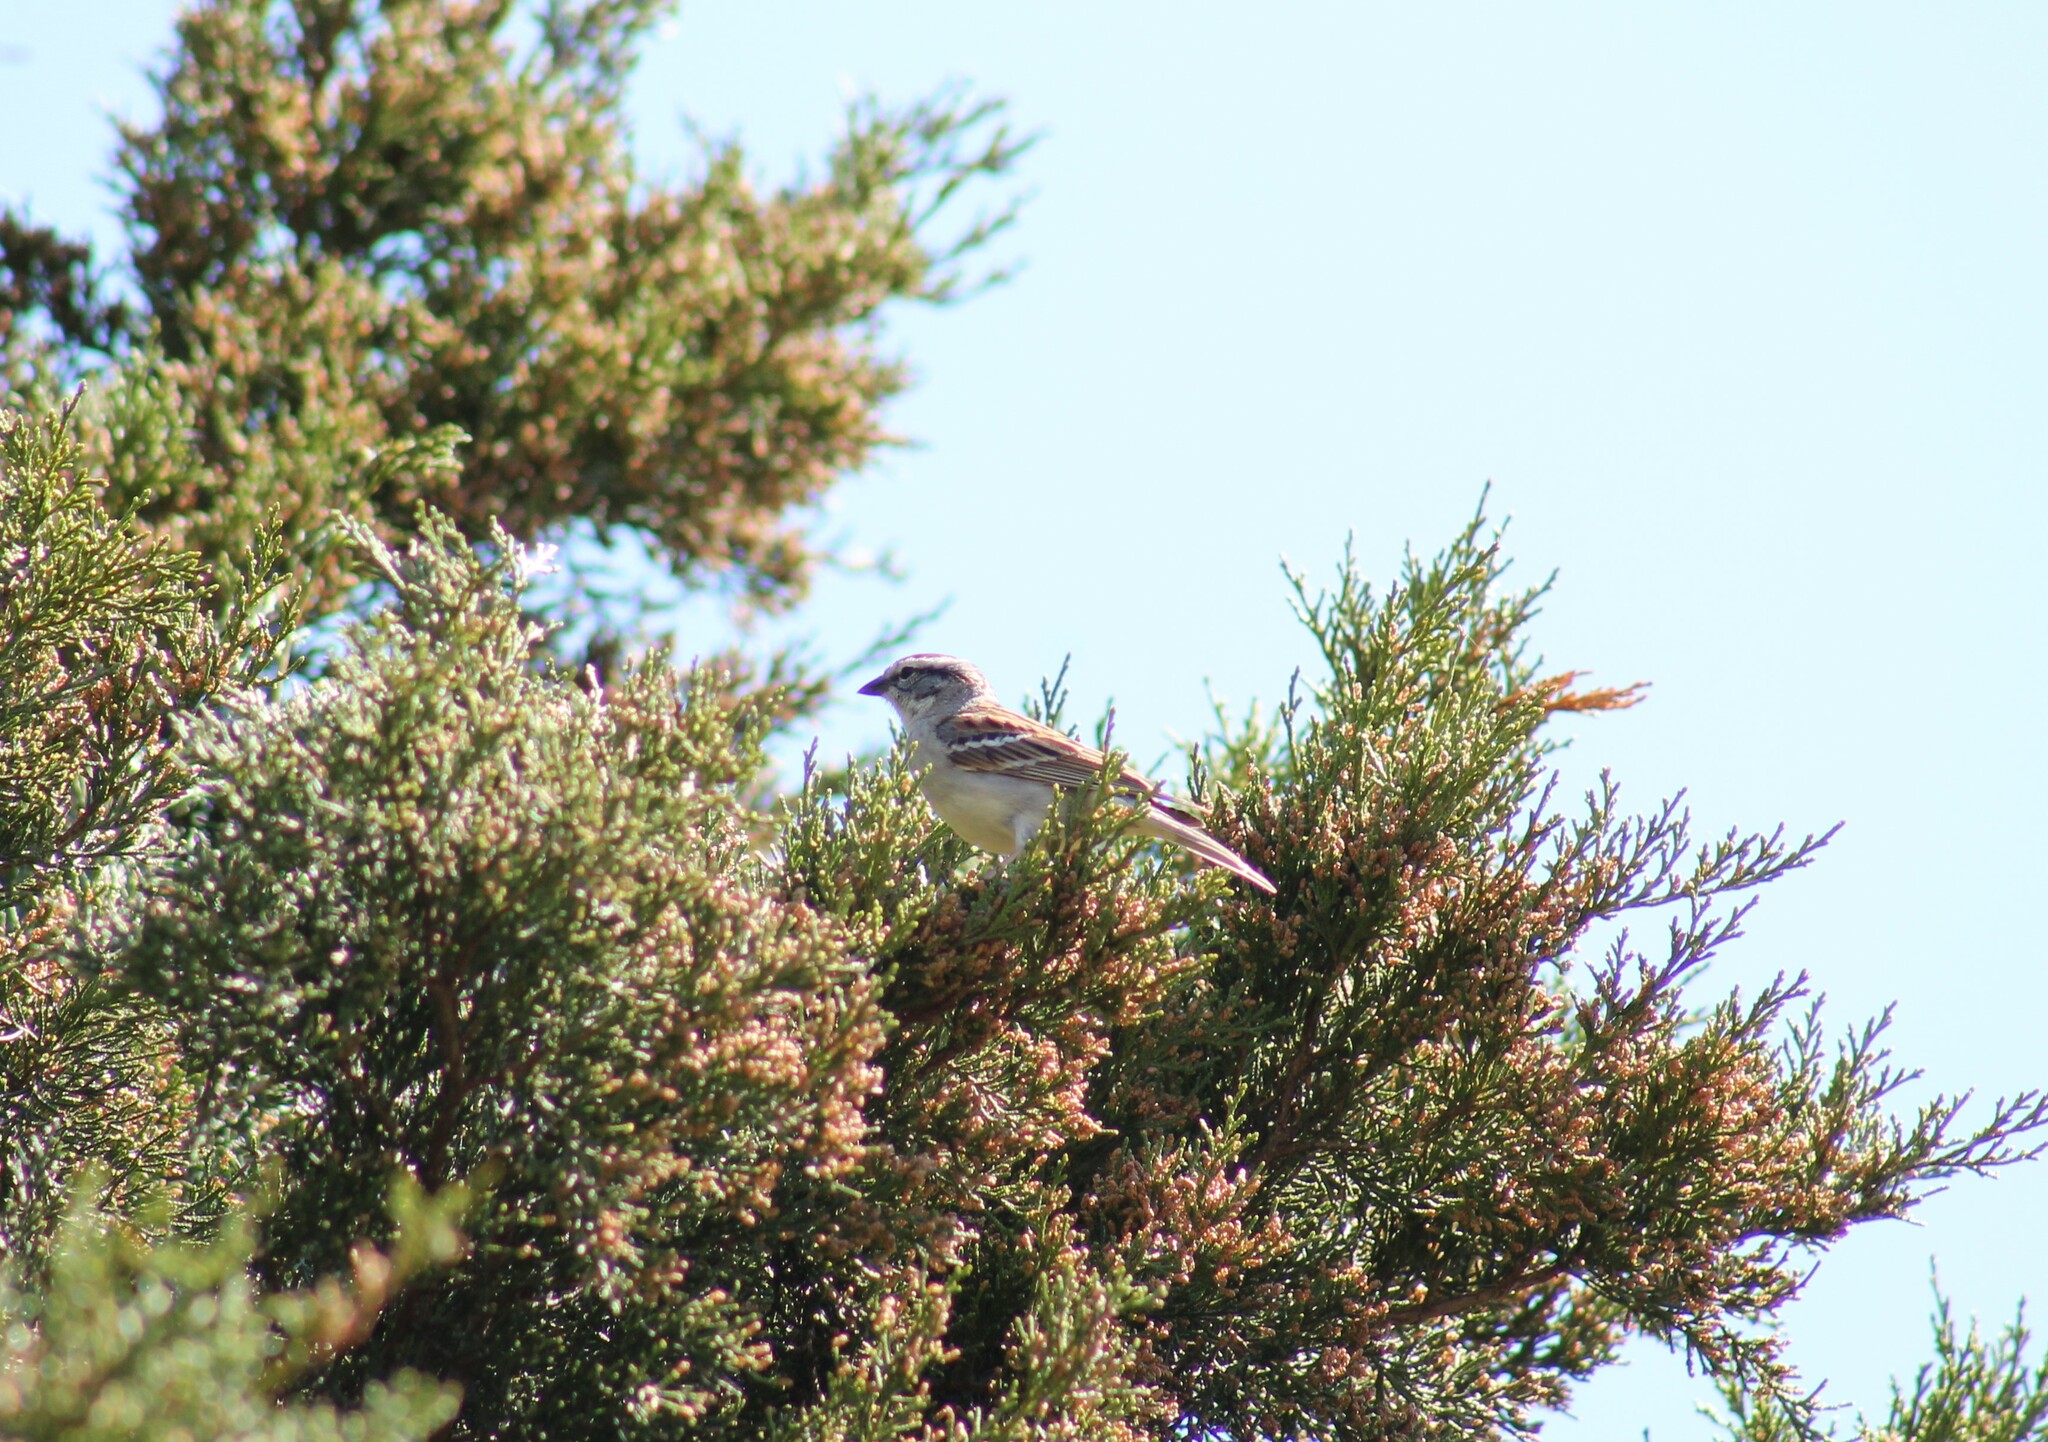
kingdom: Animalia
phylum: Chordata
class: Aves
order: Passeriformes
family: Passerellidae
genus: Spizella
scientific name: Spizella passerina
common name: Chipping sparrow
